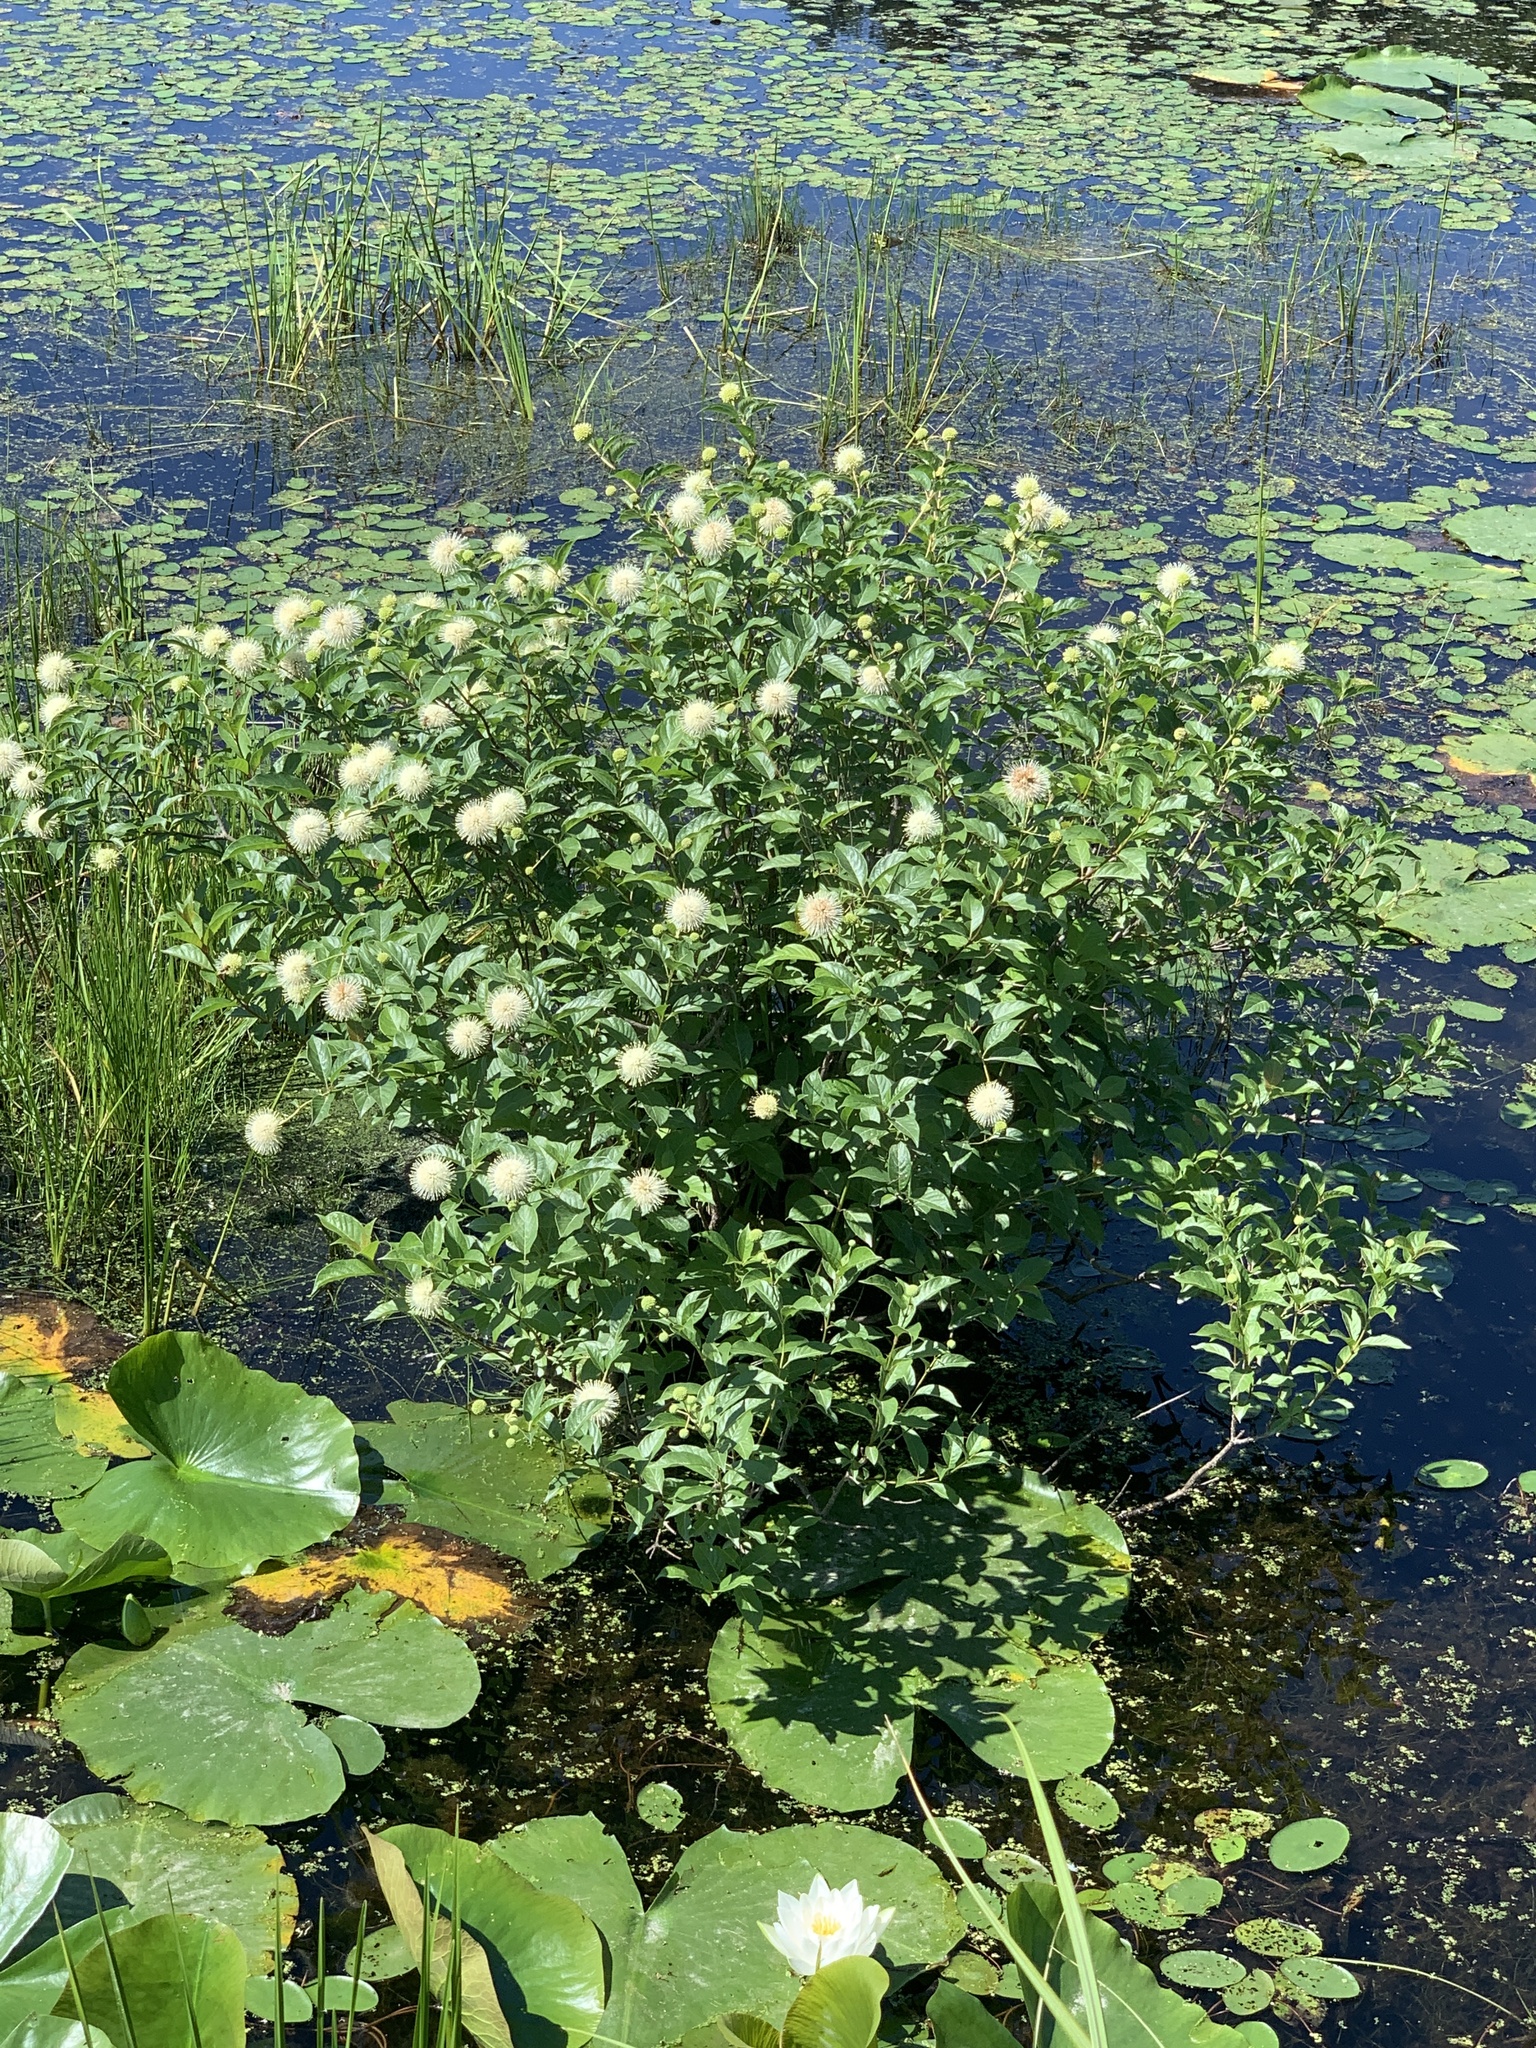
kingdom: Plantae
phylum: Tracheophyta
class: Magnoliopsida
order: Gentianales
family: Rubiaceae
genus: Cephalanthus
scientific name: Cephalanthus occidentalis
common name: Button-willow
